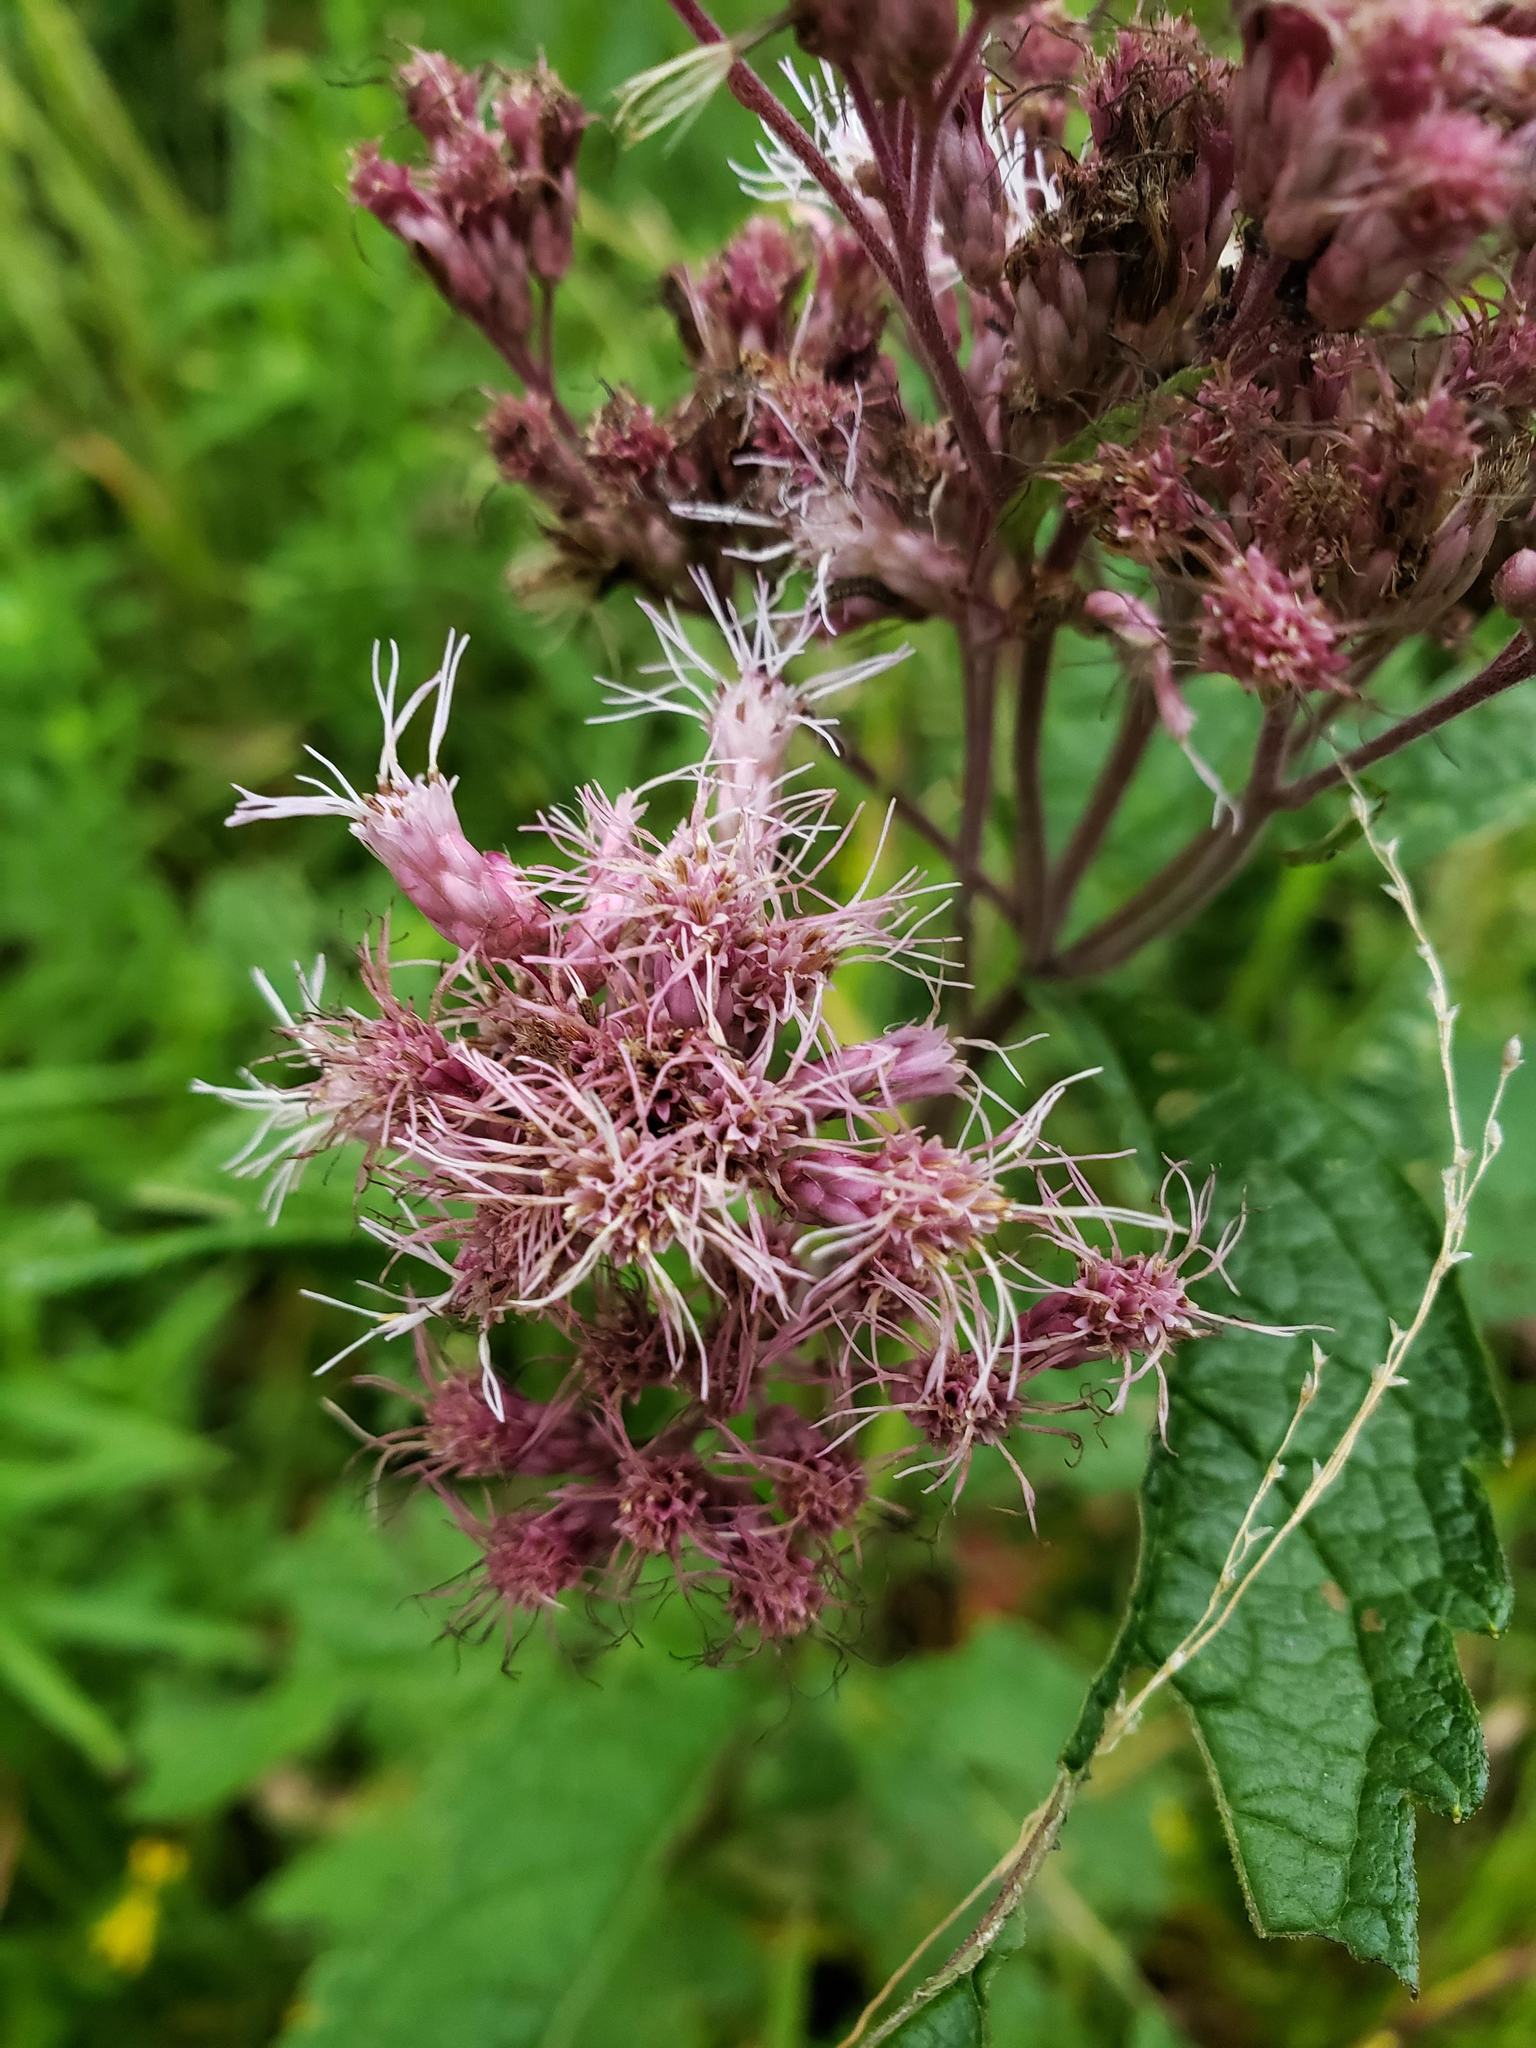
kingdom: Plantae
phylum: Tracheophyta
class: Magnoliopsida
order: Asterales
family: Asteraceae
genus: Eutrochium
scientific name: Eutrochium maculatum
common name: Spotted joe pye weed
